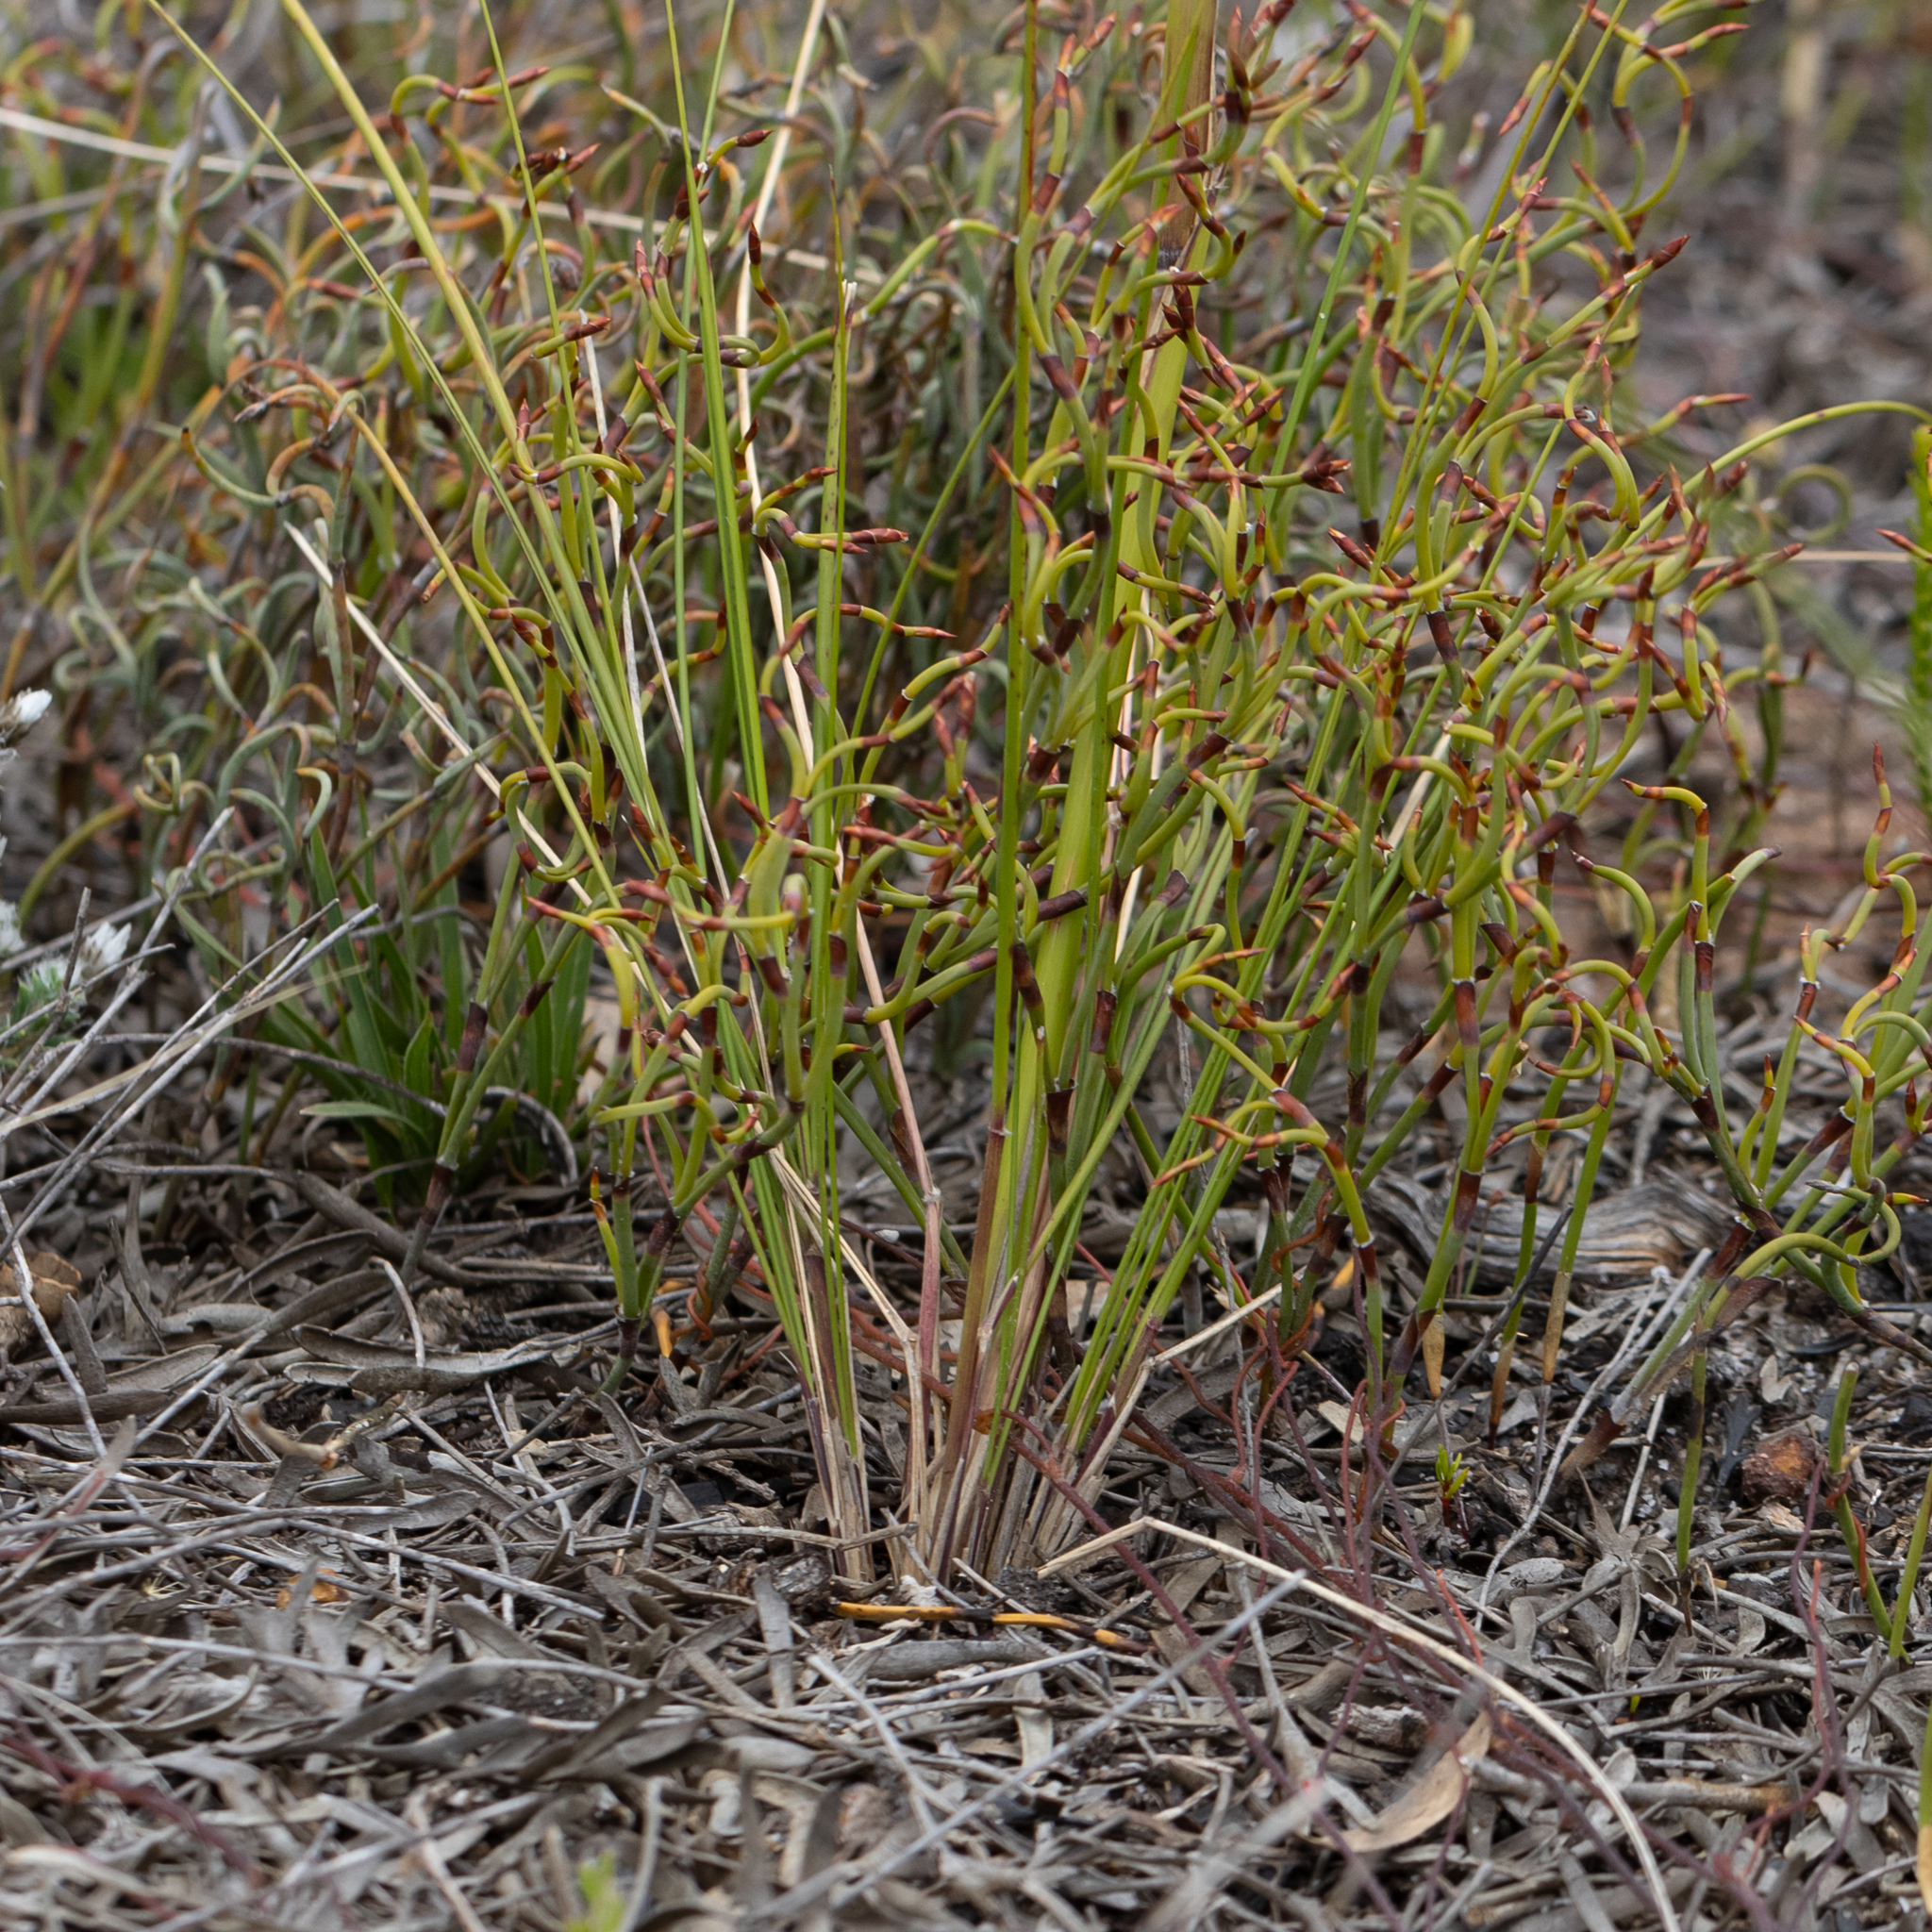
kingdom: Plantae
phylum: Tracheophyta
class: Liliopsida
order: Poales
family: Poaceae
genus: Austrostipa
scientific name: Austrostipa mollis
